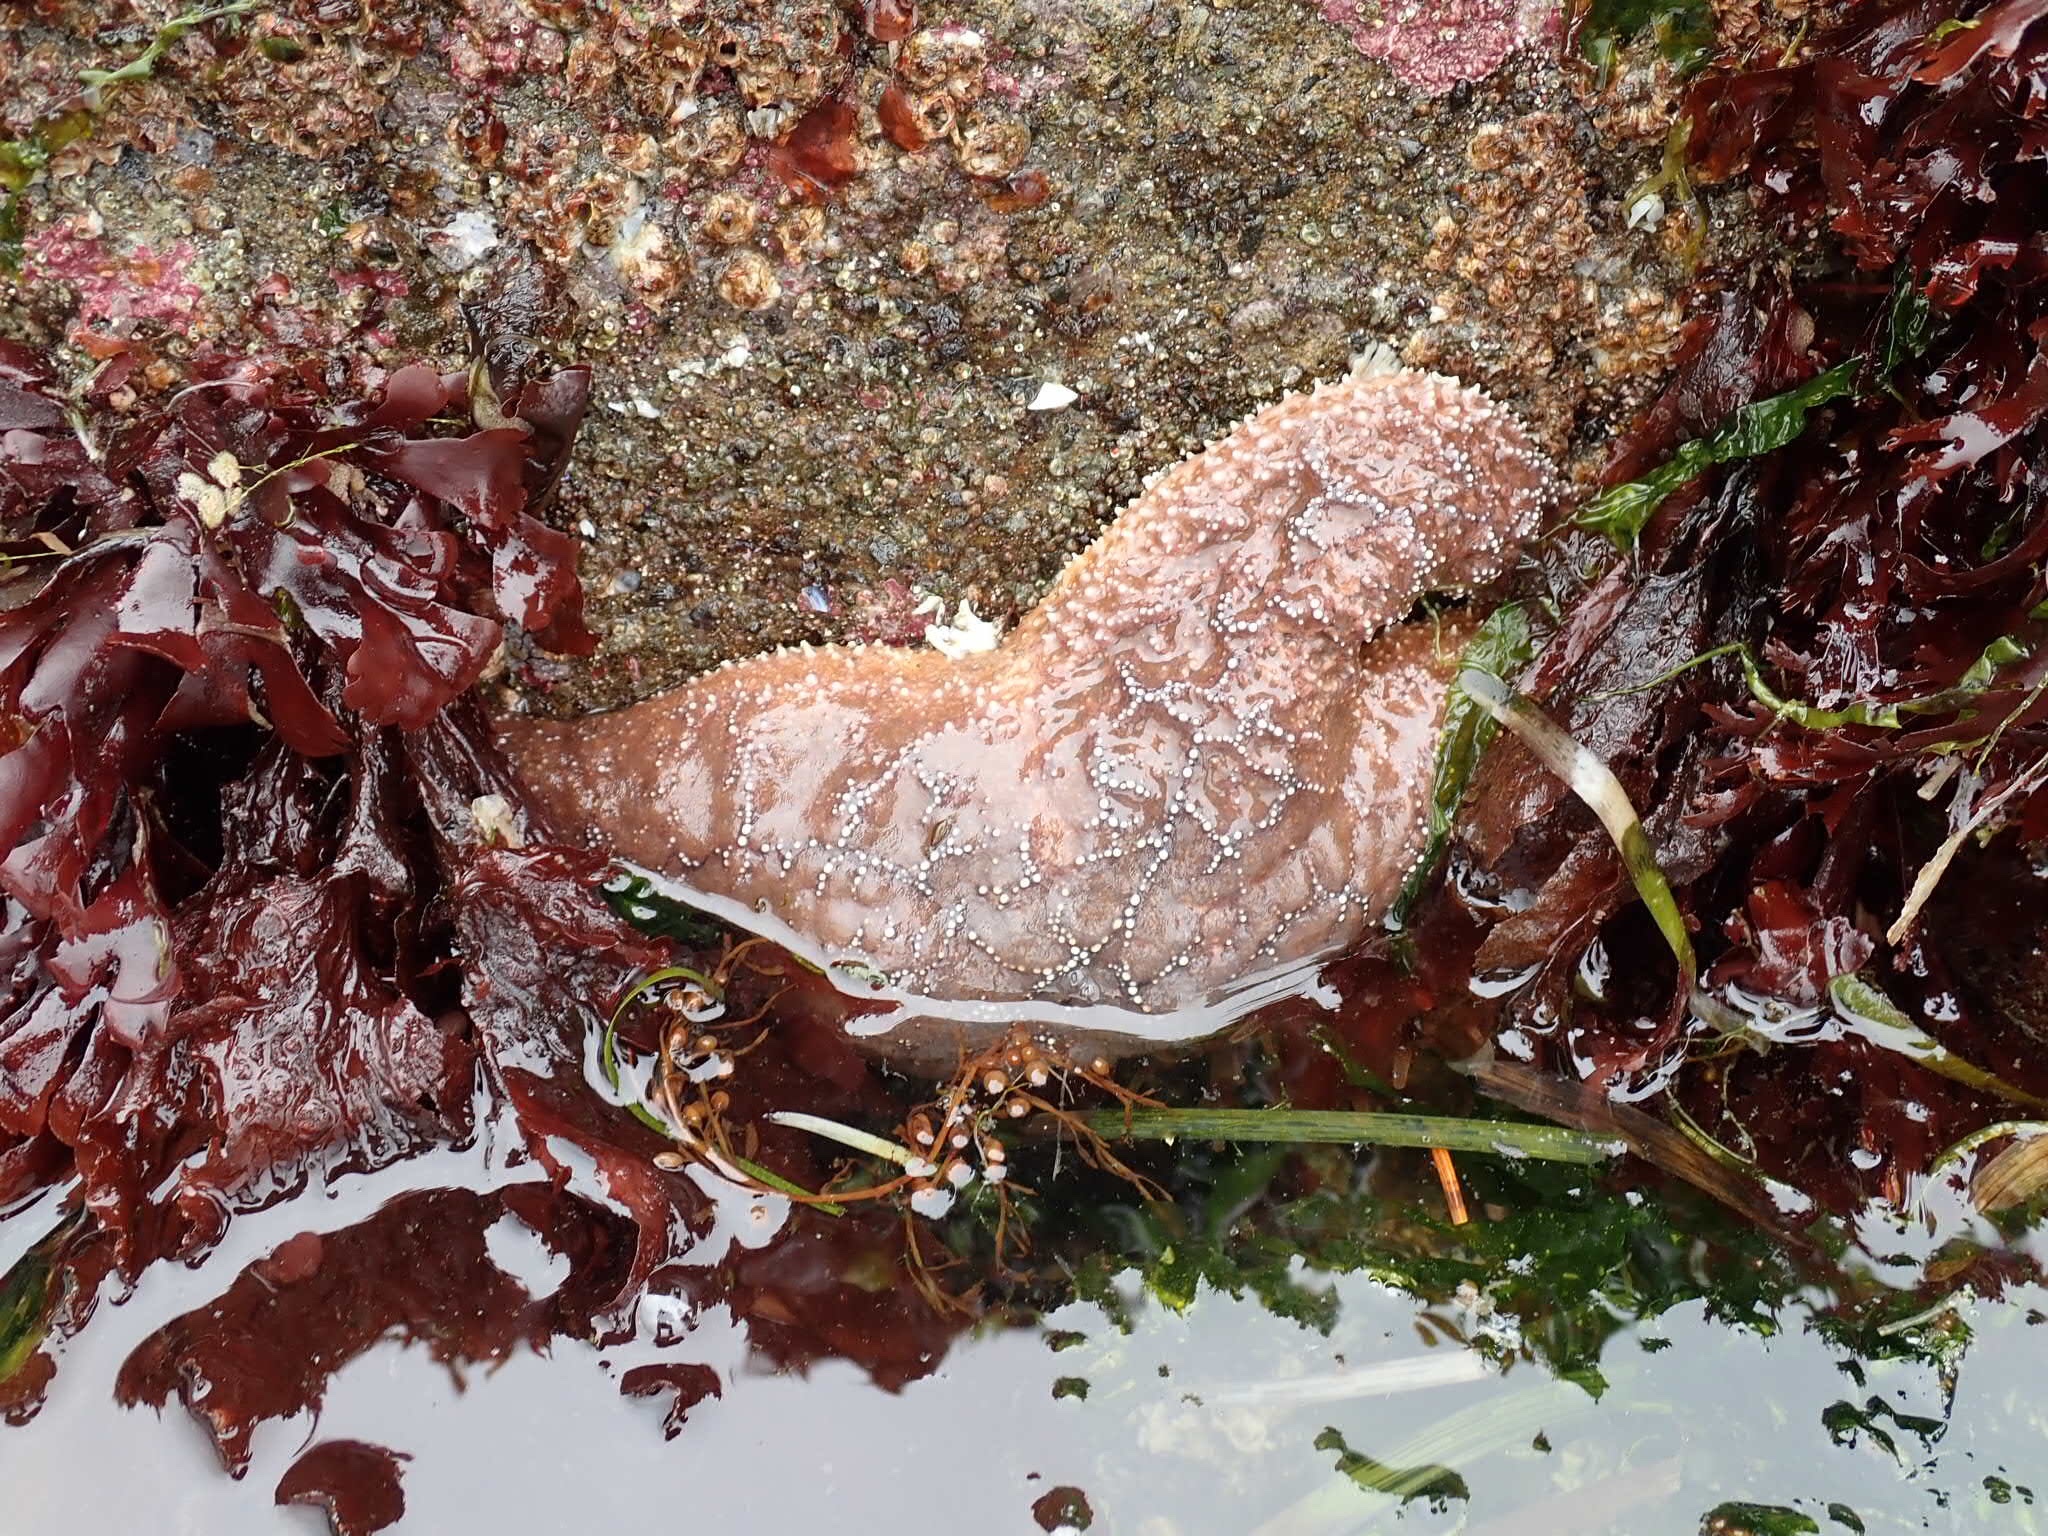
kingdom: Animalia
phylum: Echinodermata
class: Asteroidea
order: Forcipulatida
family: Asteriidae
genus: Pisaster
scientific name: Pisaster ochraceus
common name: Ochre stars
